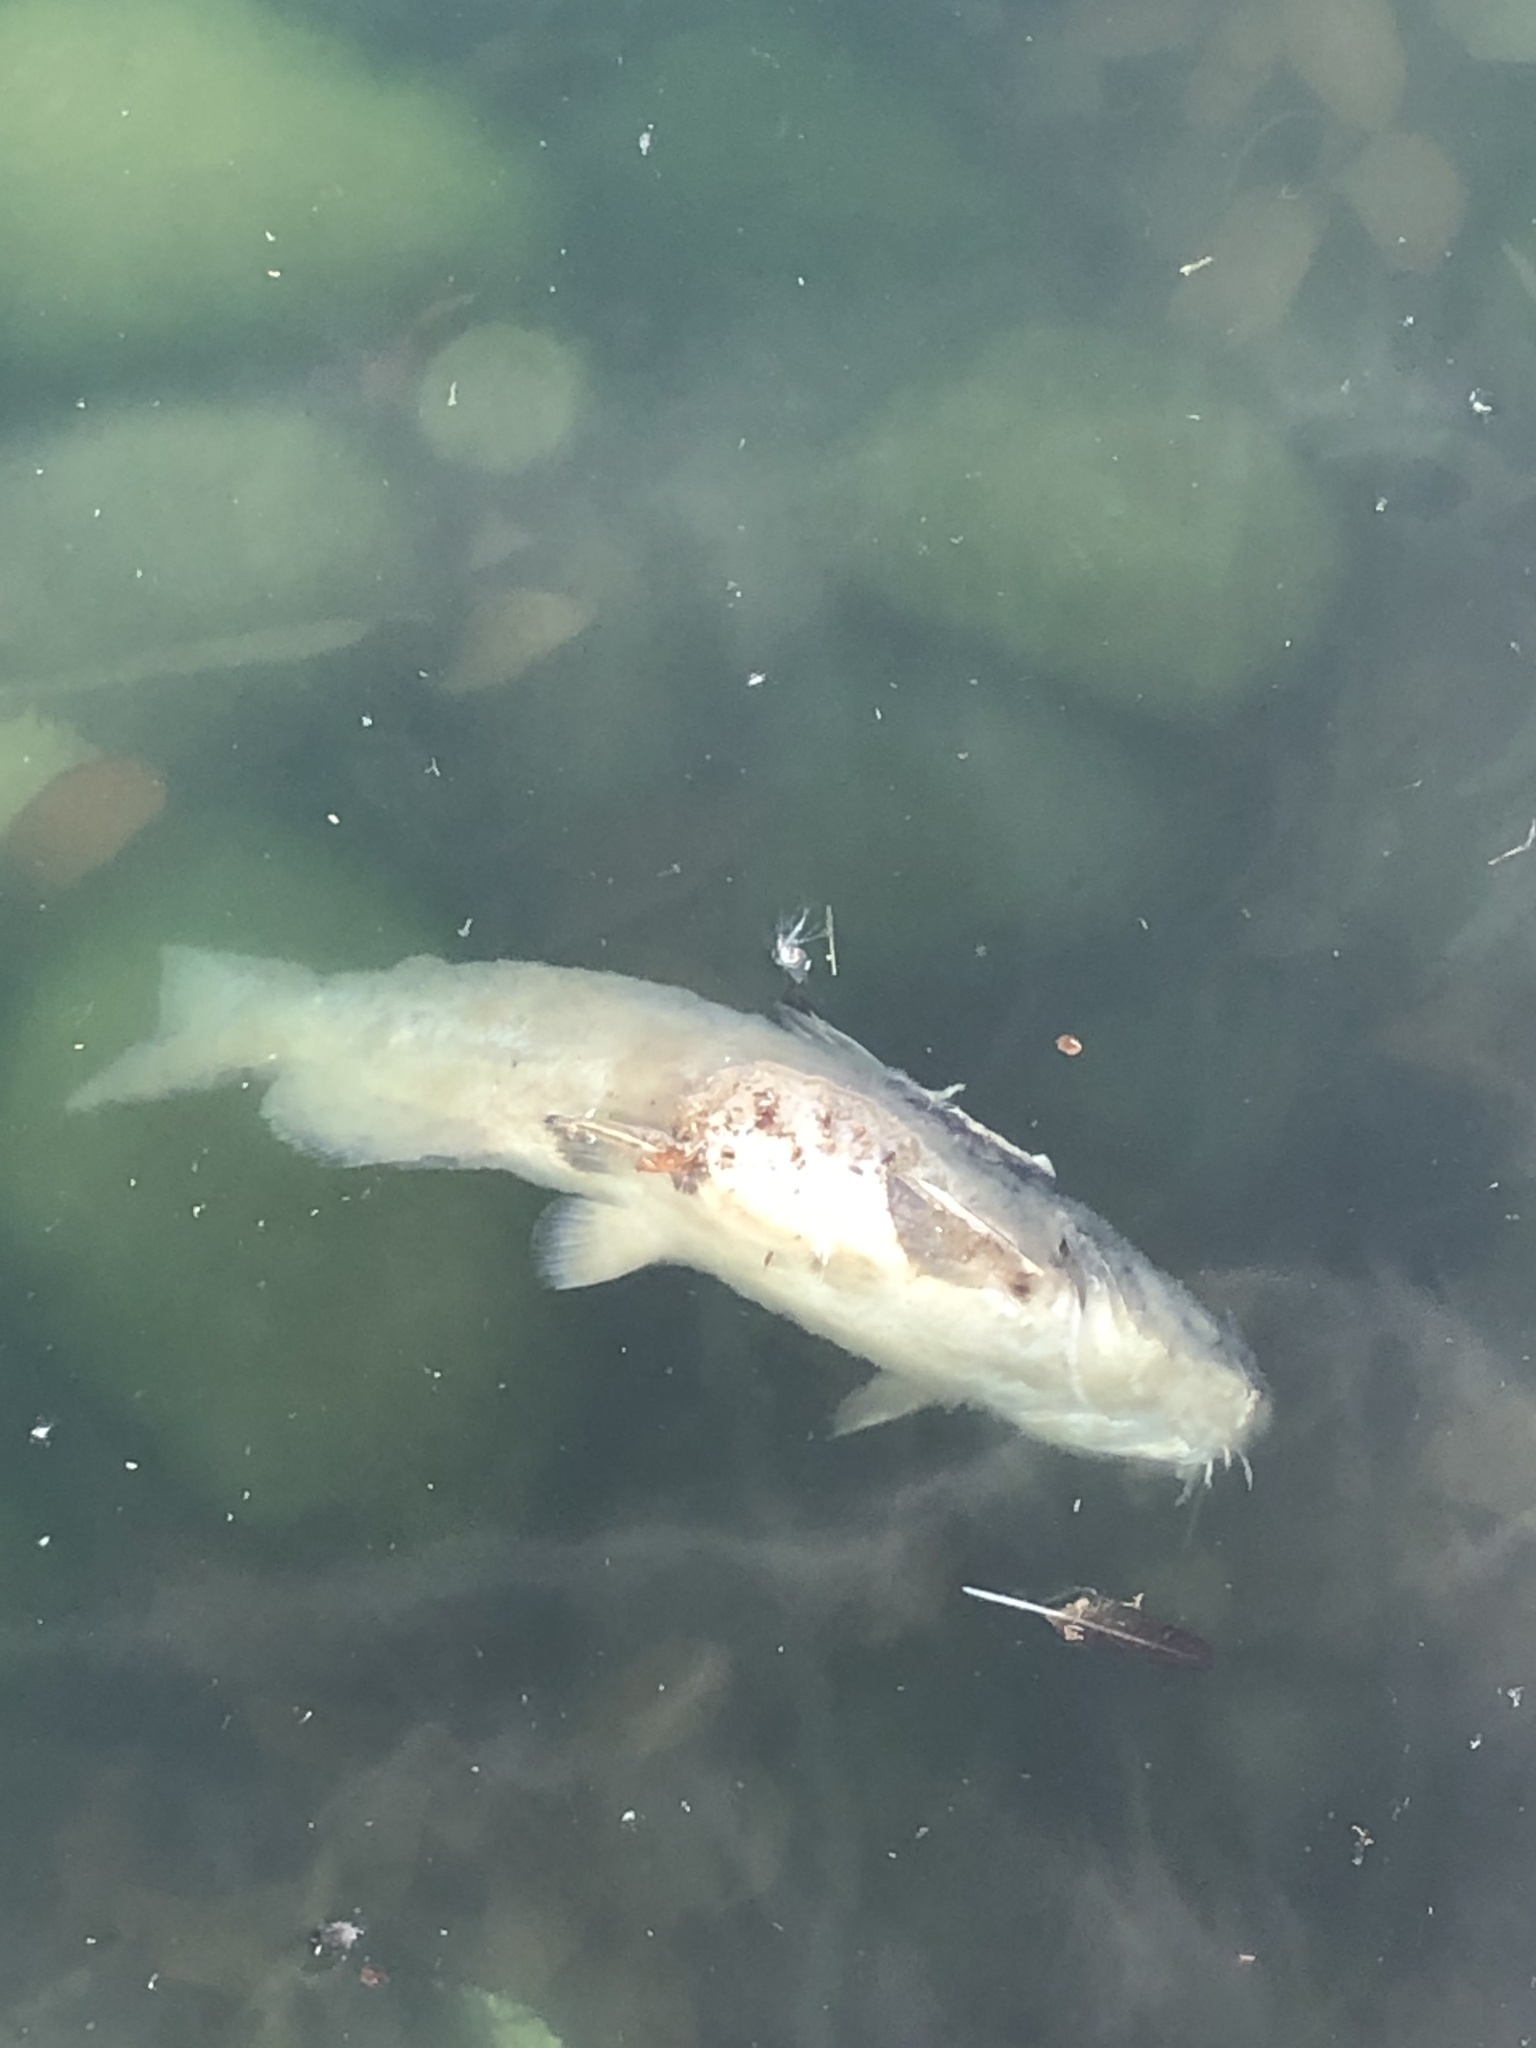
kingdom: Animalia
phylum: Chordata
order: Siluriformes
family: Ictaluridae
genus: Ictalurus
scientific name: Ictalurus punctatus
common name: Channel catfish
